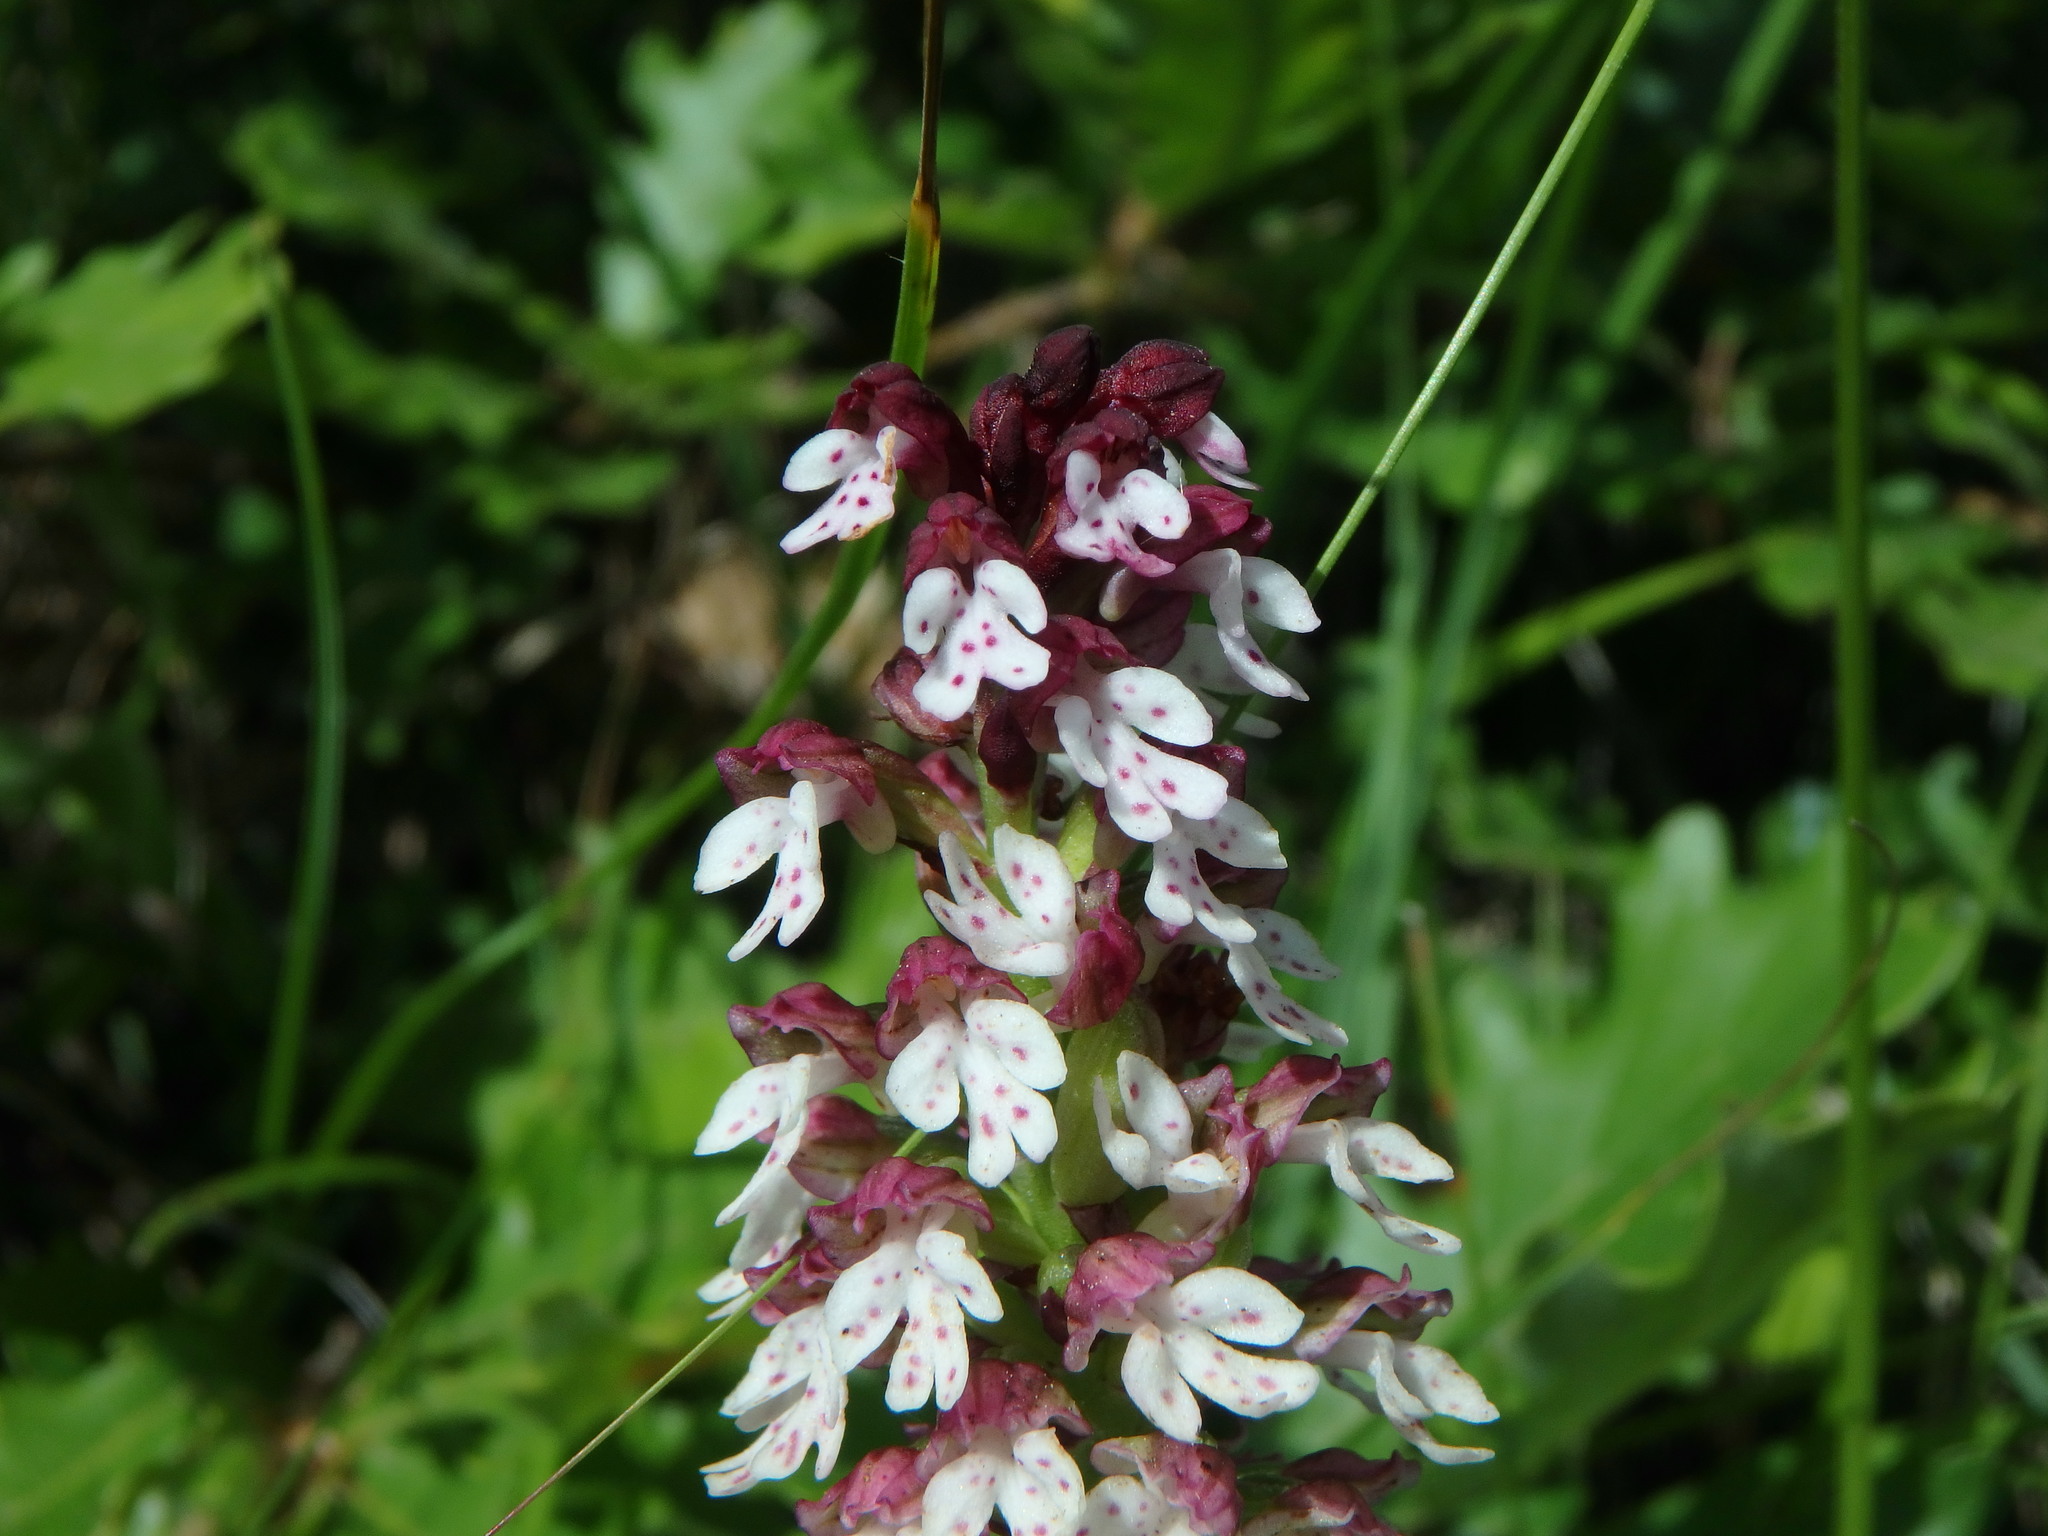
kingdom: Plantae
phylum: Tracheophyta
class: Liliopsida
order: Asparagales
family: Orchidaceae
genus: Neotinea
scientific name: Neotinea ustulata
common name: Burnt orchid
